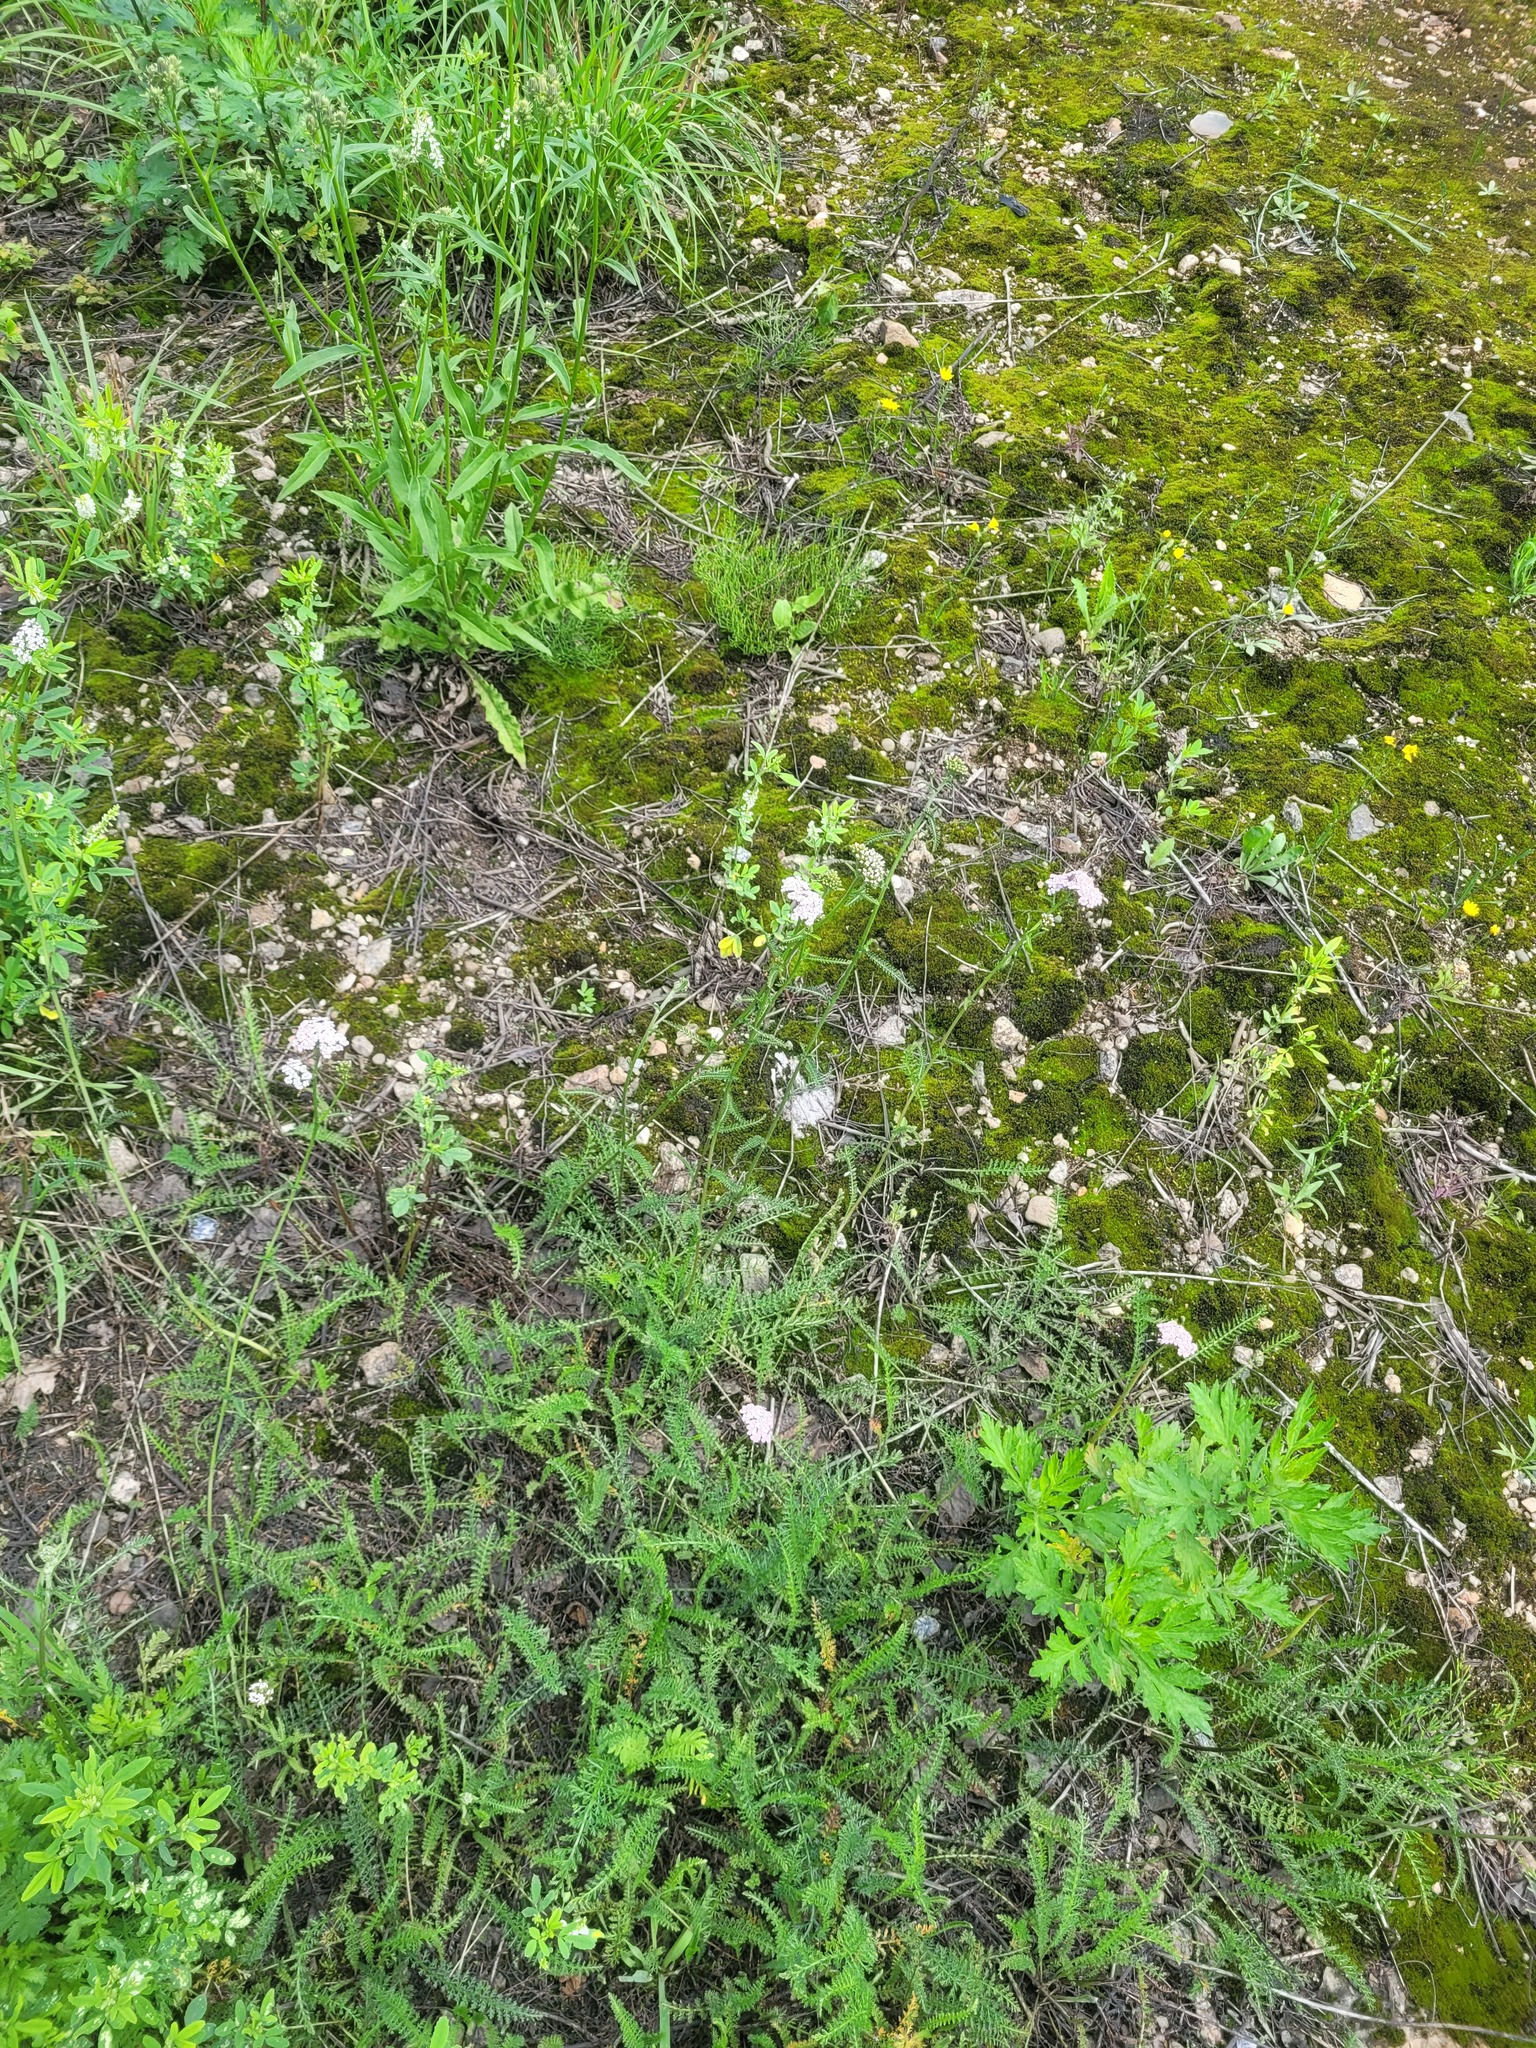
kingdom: Plantae
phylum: Tracheophyta
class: Magnoliopsida
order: Asterales
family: Asteraceae
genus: Achillea
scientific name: Achillea millefolium
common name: Yarrow
